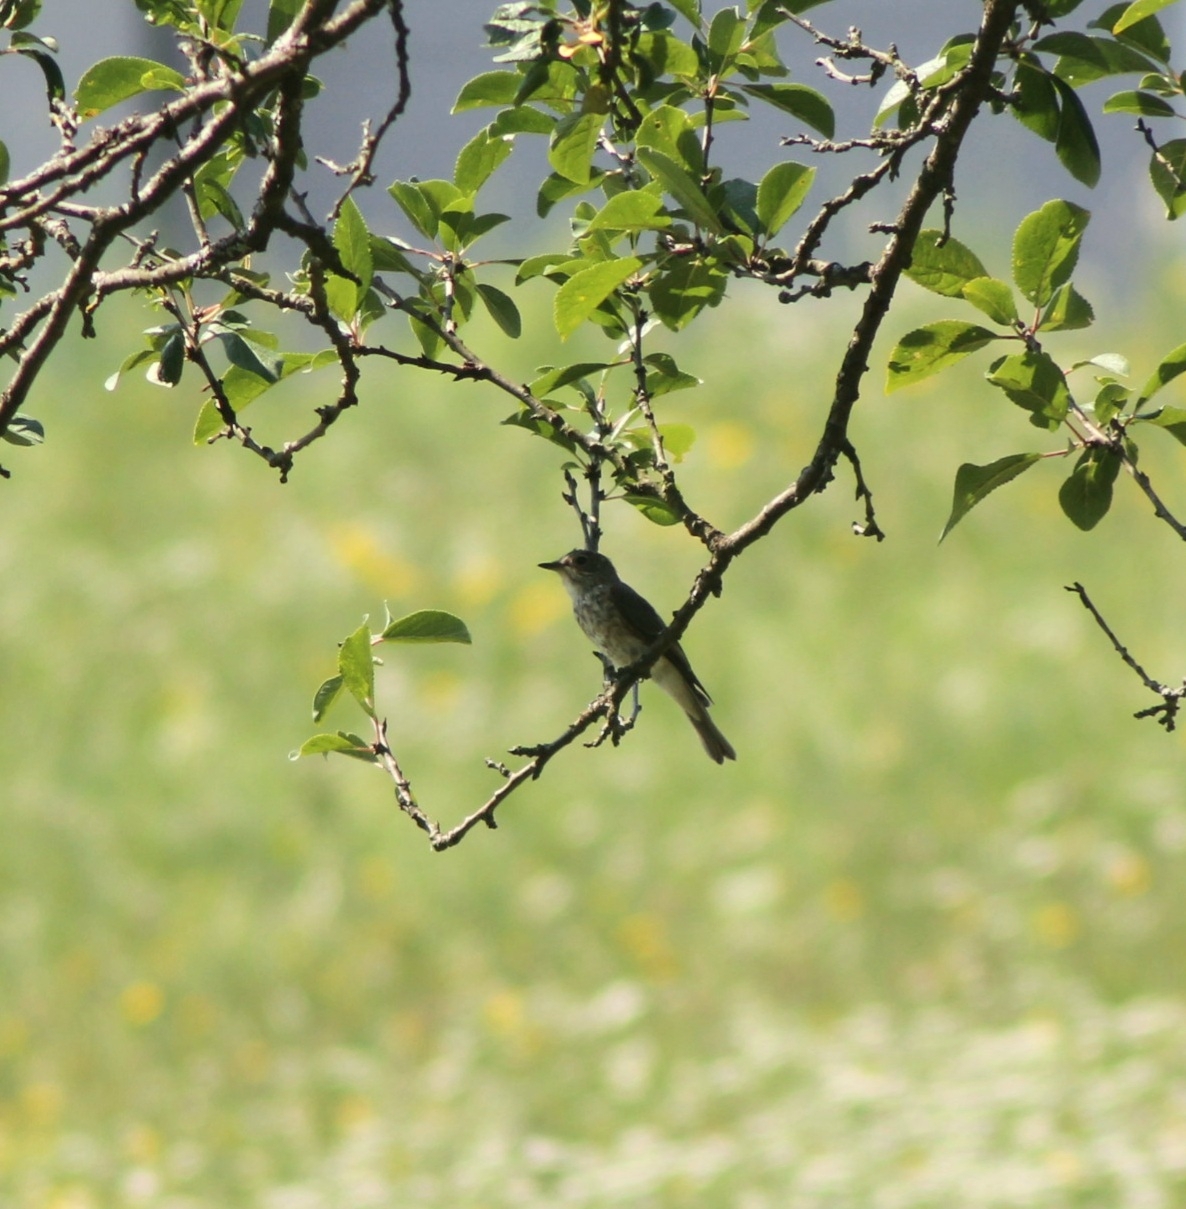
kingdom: Animalia
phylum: Chordata
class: Aves
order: Passeriformes
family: Muscicapidae
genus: Muscicapa
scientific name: Muscicapa striata
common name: Spotted flycatcher
